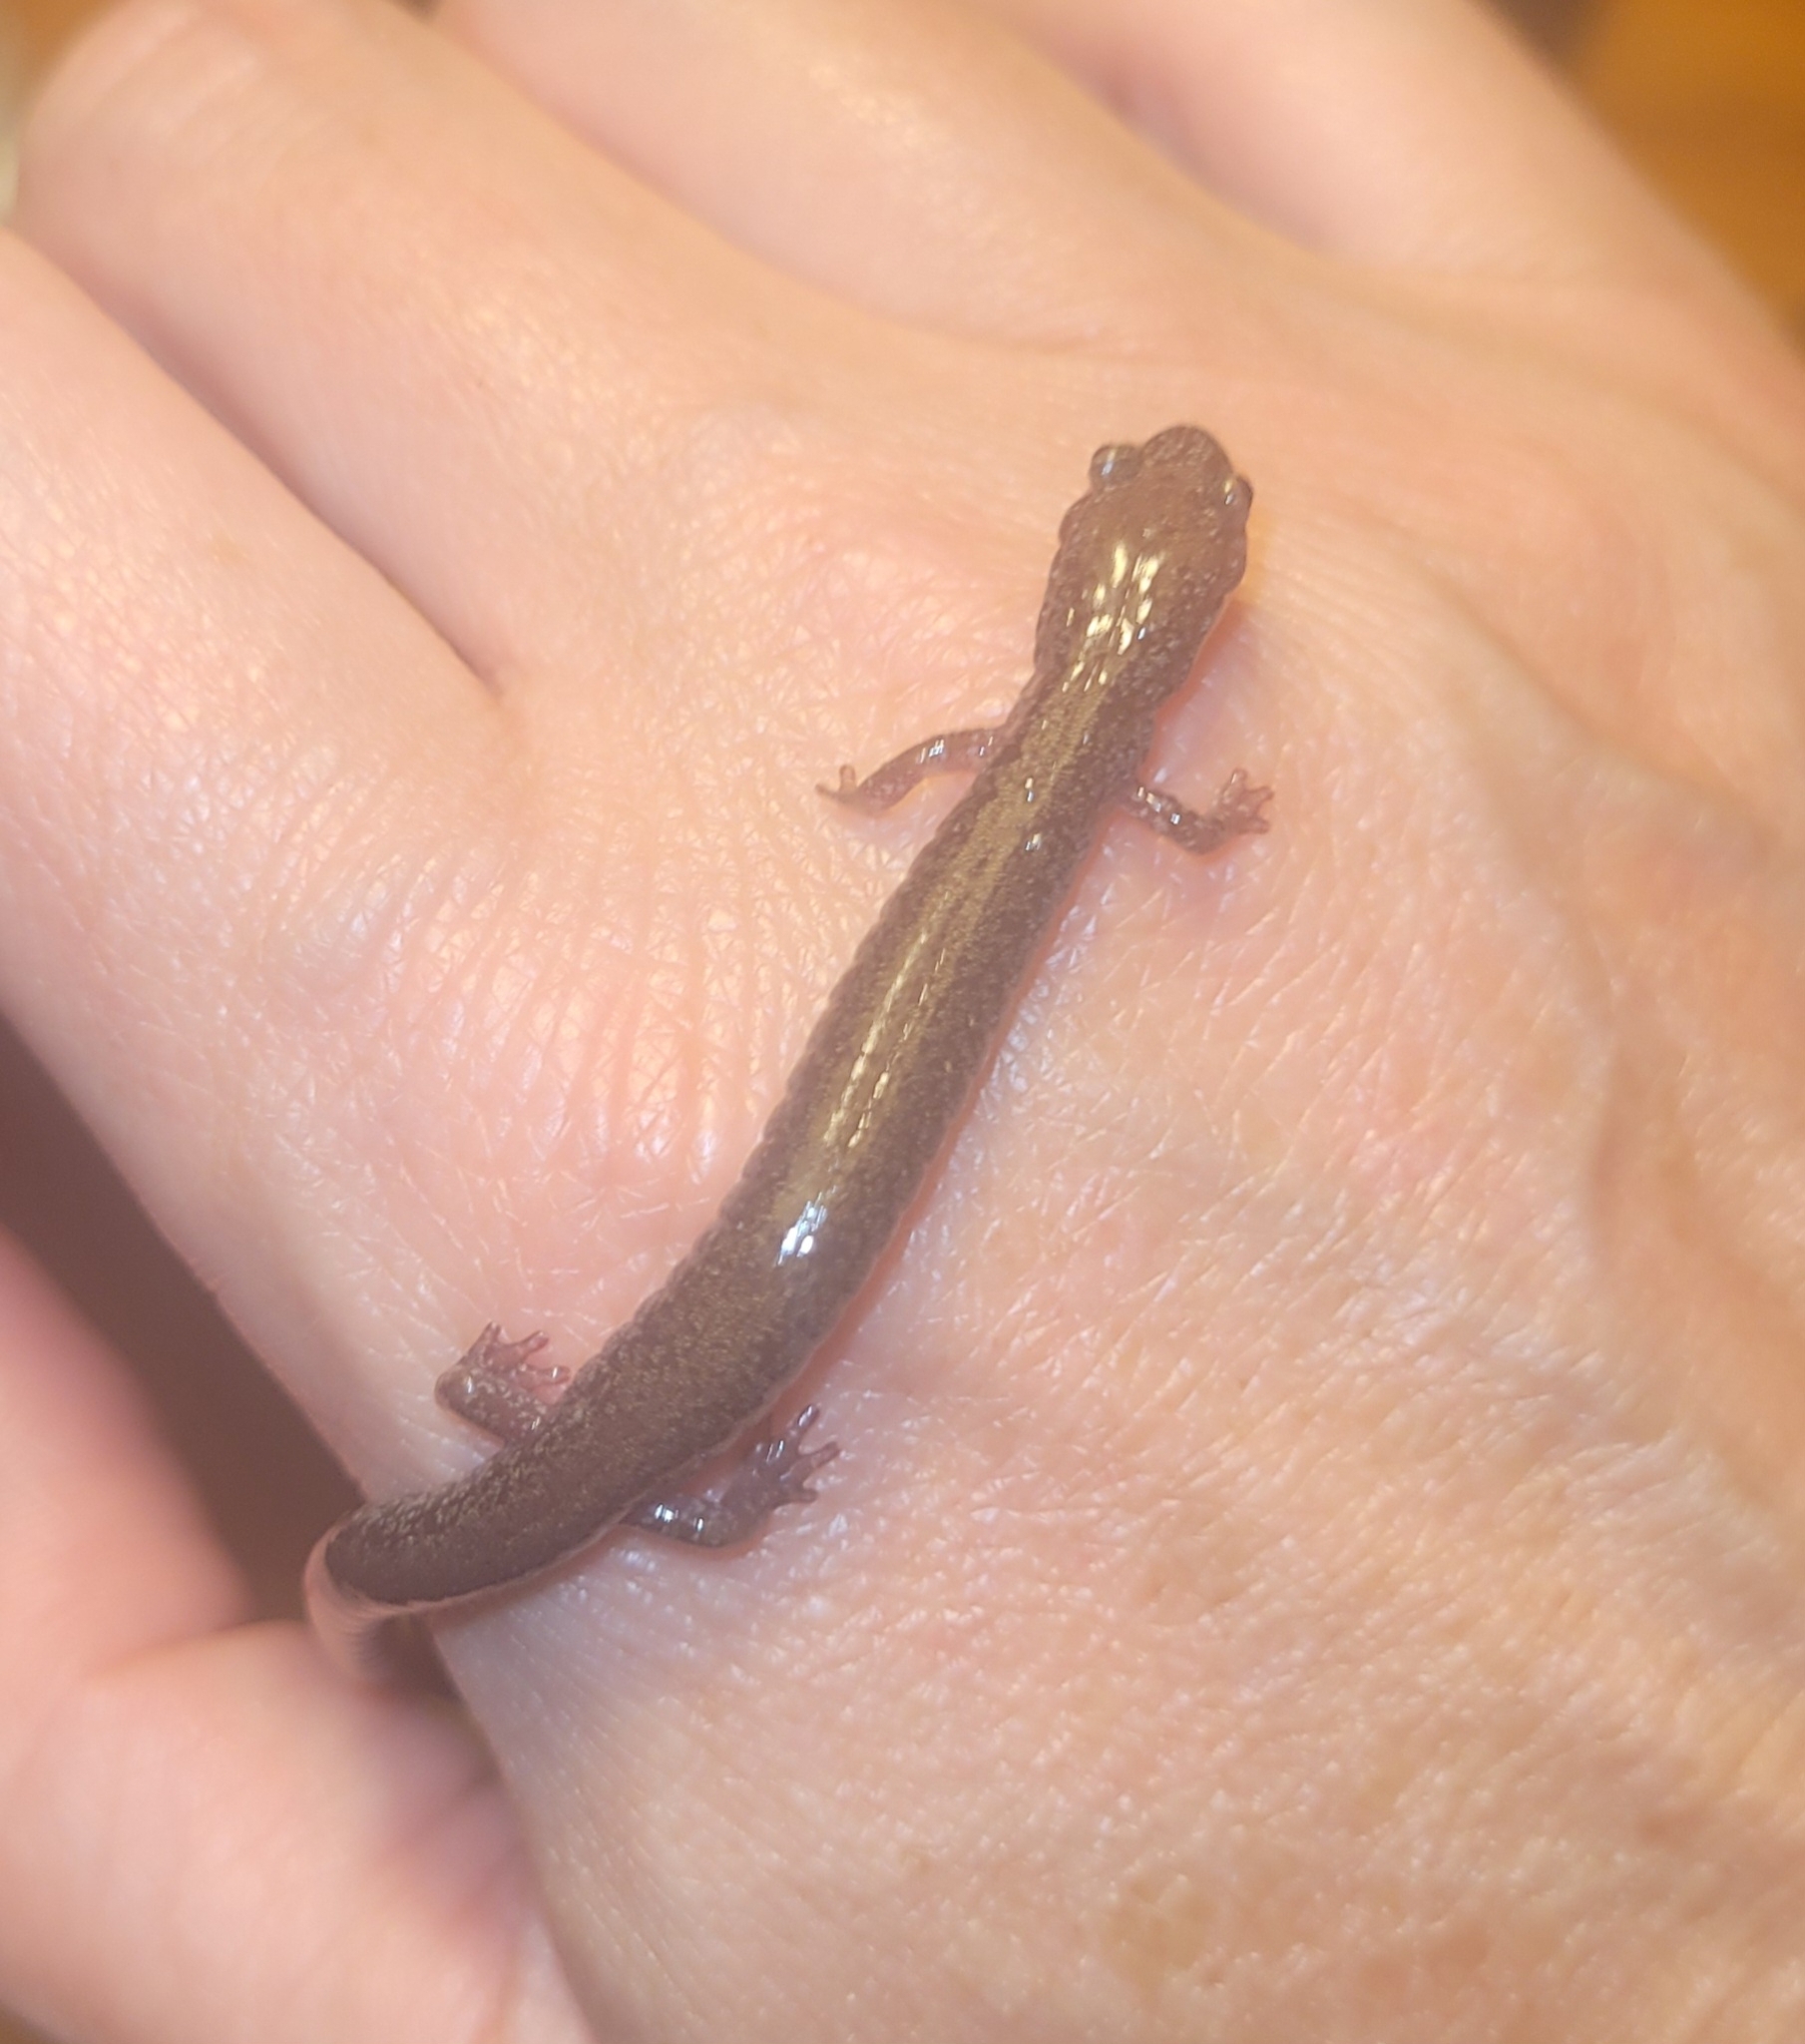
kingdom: Animalia
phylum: Chordata
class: Amphibia
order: Caudata
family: Plethodontidae
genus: Plethodon
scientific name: Plethodon cinereus
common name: Redback salamander
